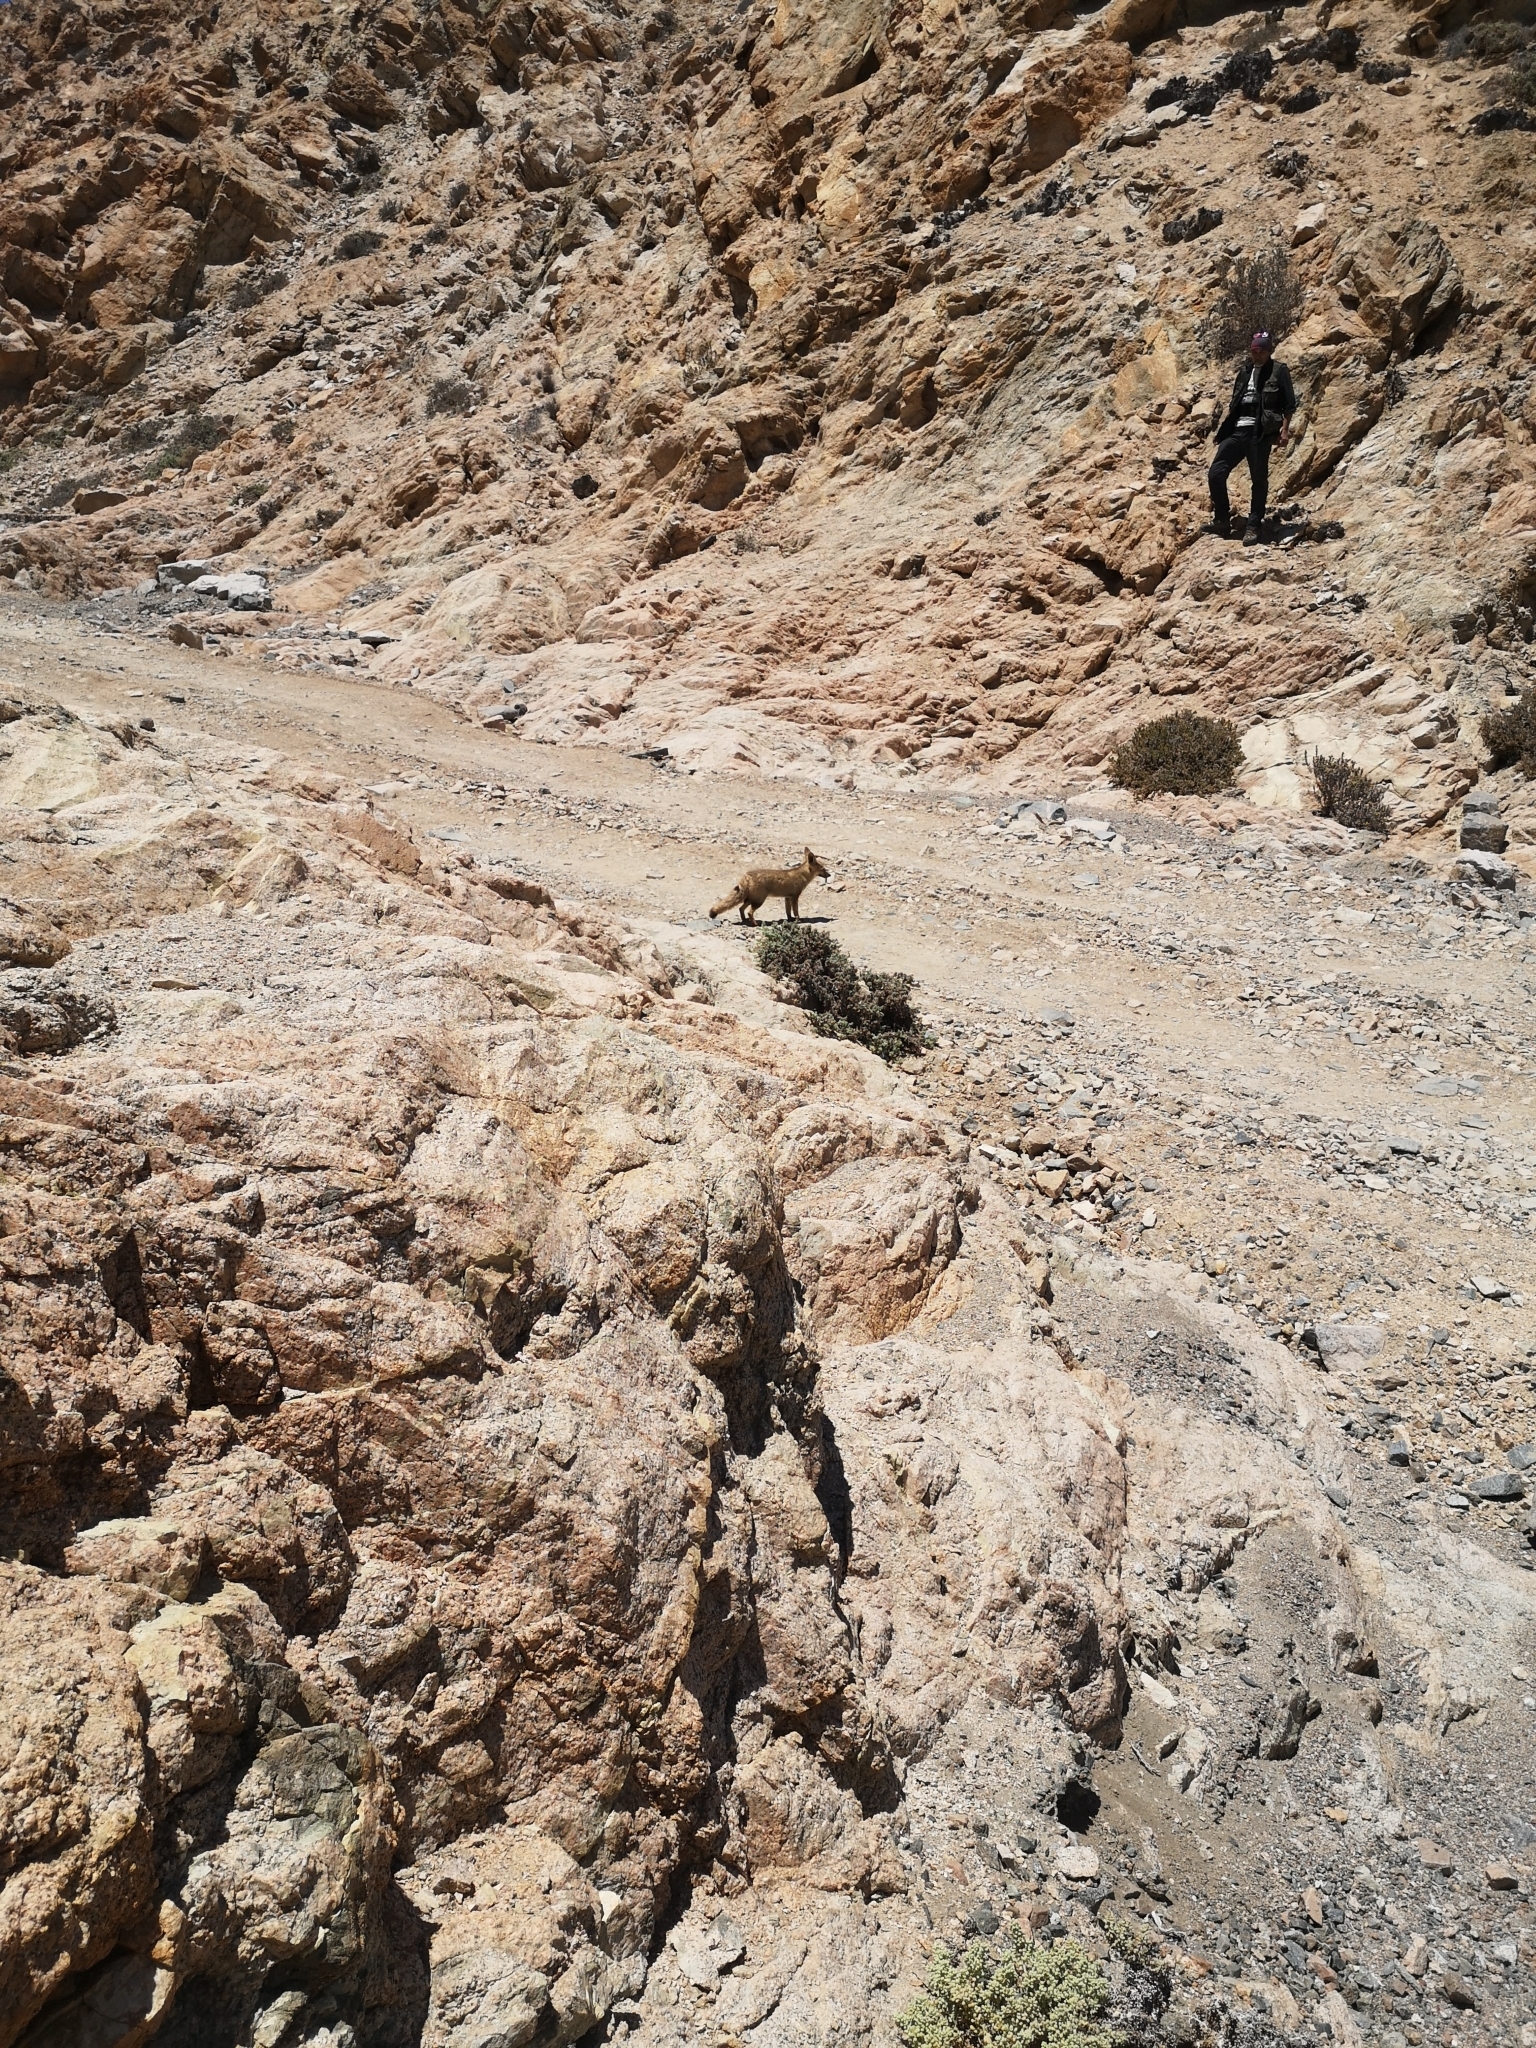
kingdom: Animalia
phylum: Chordata
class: Mammalia
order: Carnivora
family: Canidae
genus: Lycalopex
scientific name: Lycalopex gymnocercus
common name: Pampas fox
